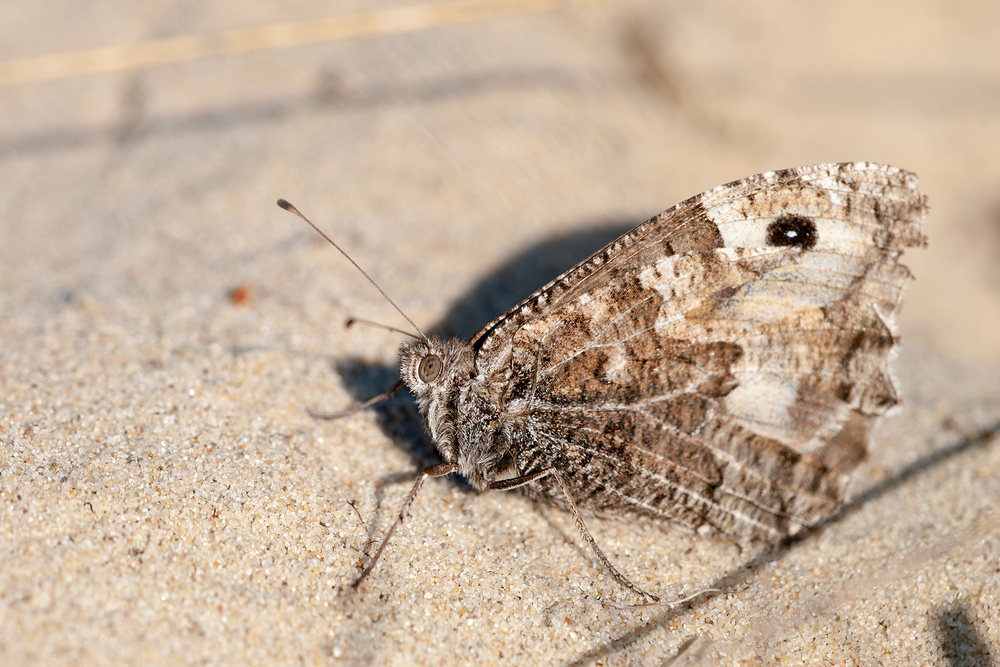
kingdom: Animalia
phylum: Arthropoda
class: Insecta
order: Lepidoptera
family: Nymphalidae
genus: Hipparchia
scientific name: Hipparchia semele
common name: Grayling
